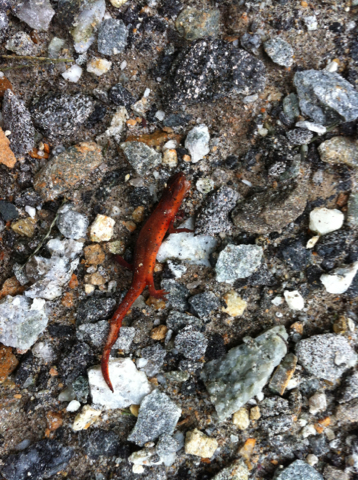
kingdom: Animalia
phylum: Chordata
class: Amphibia
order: Caudata
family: Salamandridae
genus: Notophthalmus
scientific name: Notophthalmus viridescens
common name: Eastern newt
